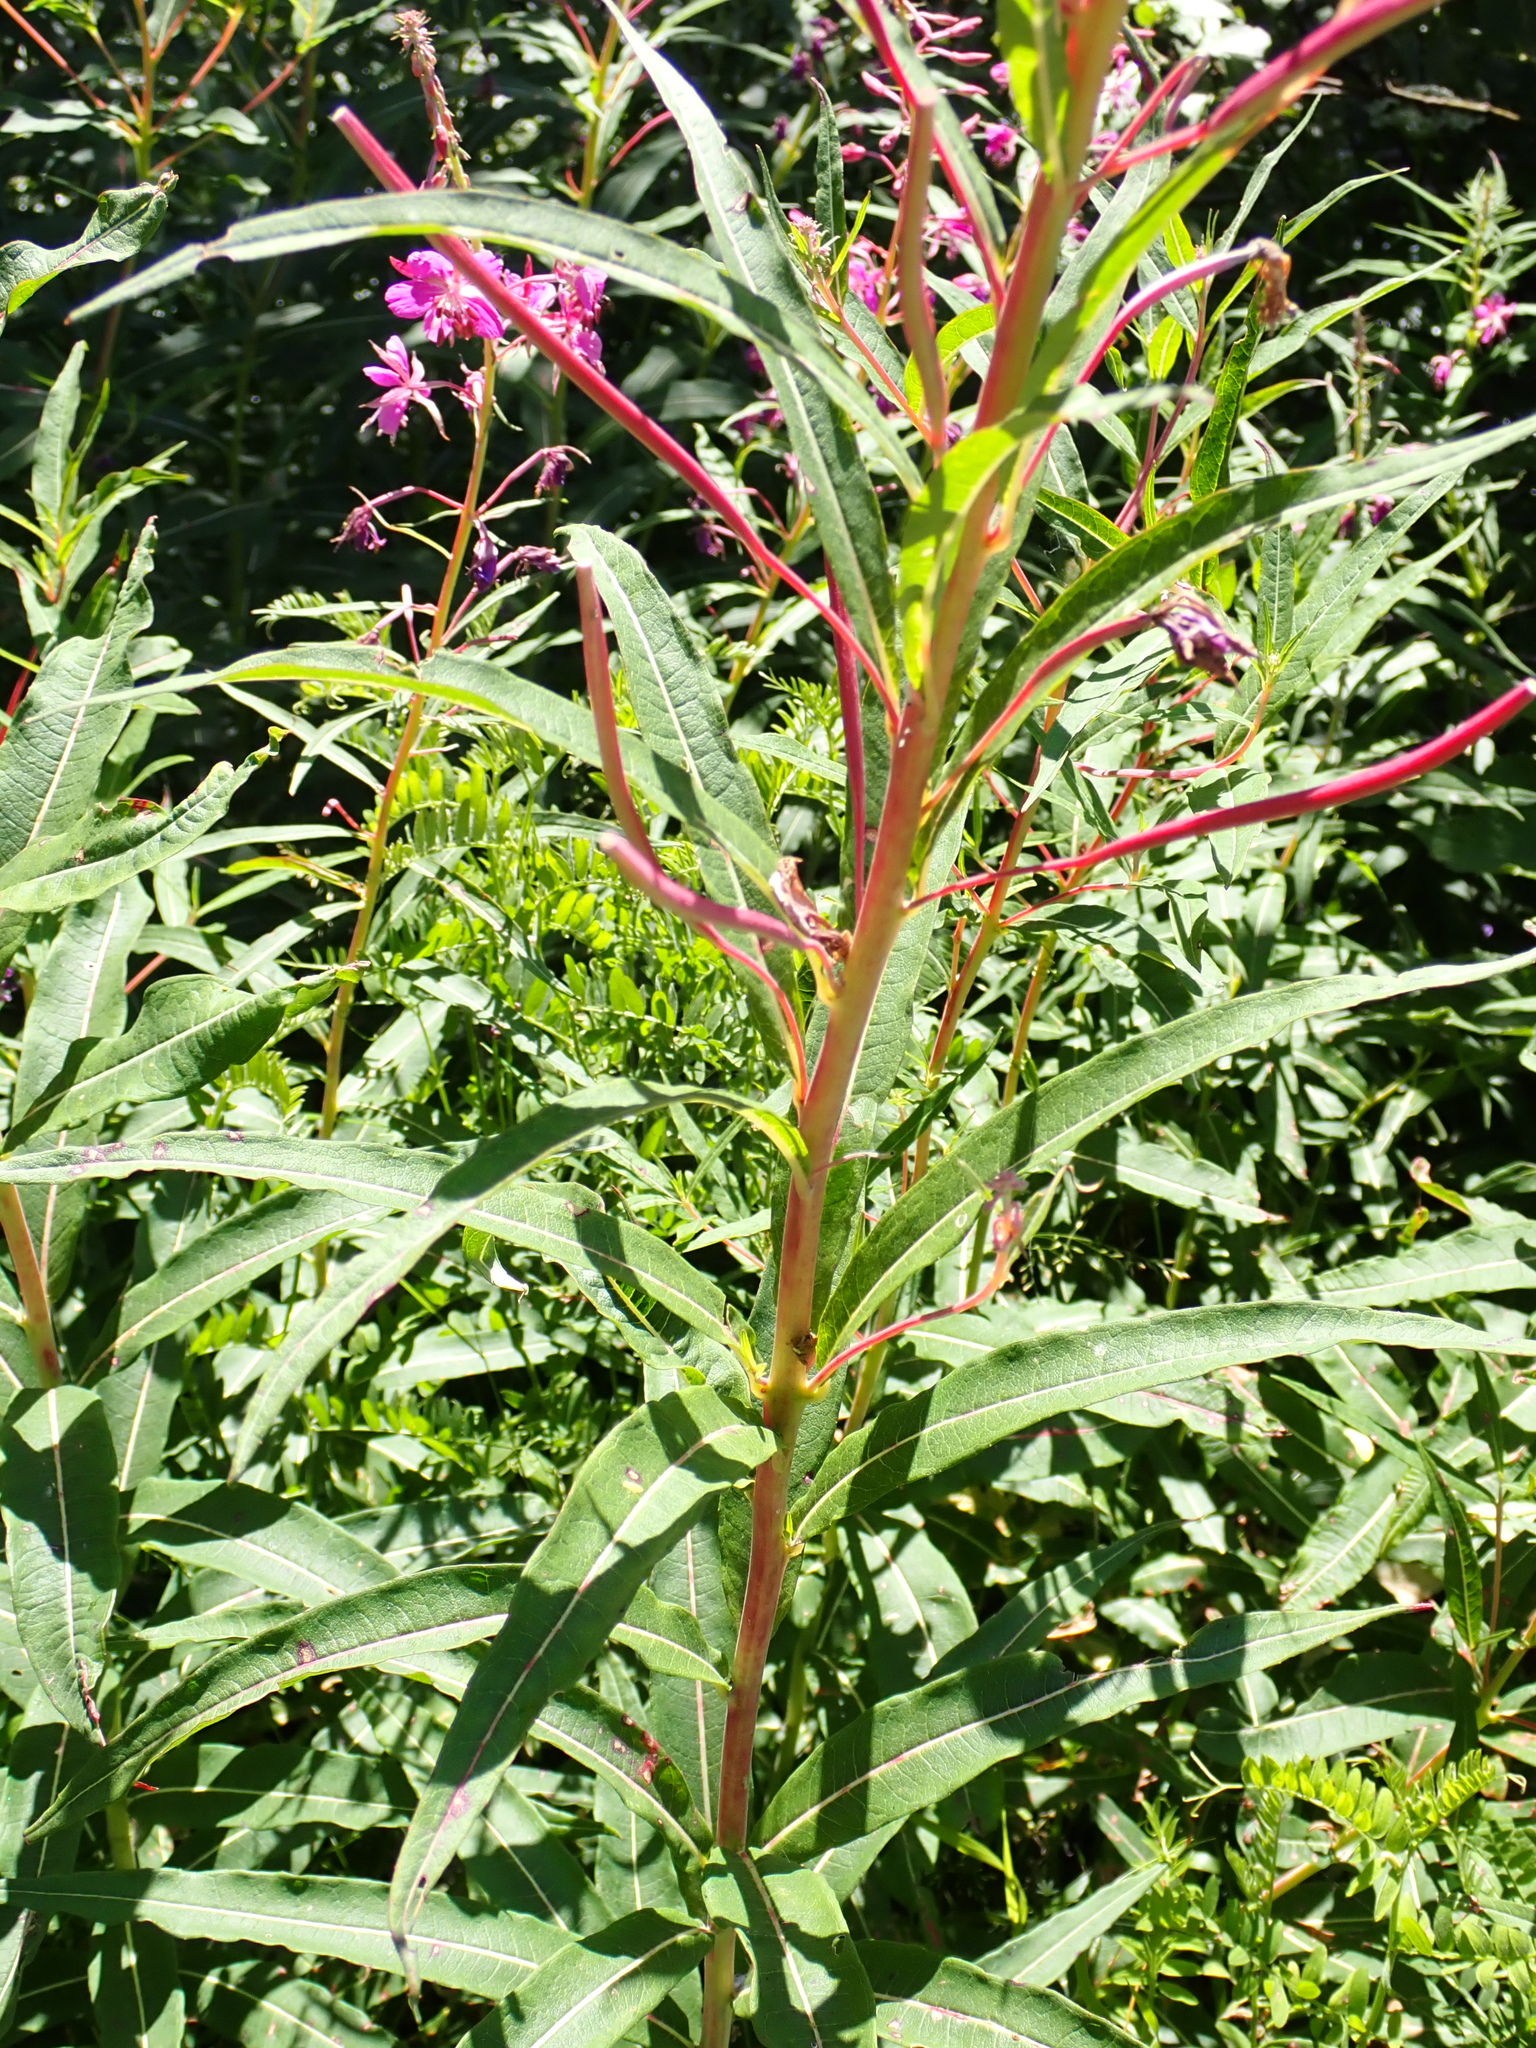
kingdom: Plantae
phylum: Tracheophyta
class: Magnoliopsida
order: Myrtales
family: Onagraceae
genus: Chamaenerion
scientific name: Chamaenerion angustifolium
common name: Fireweed
